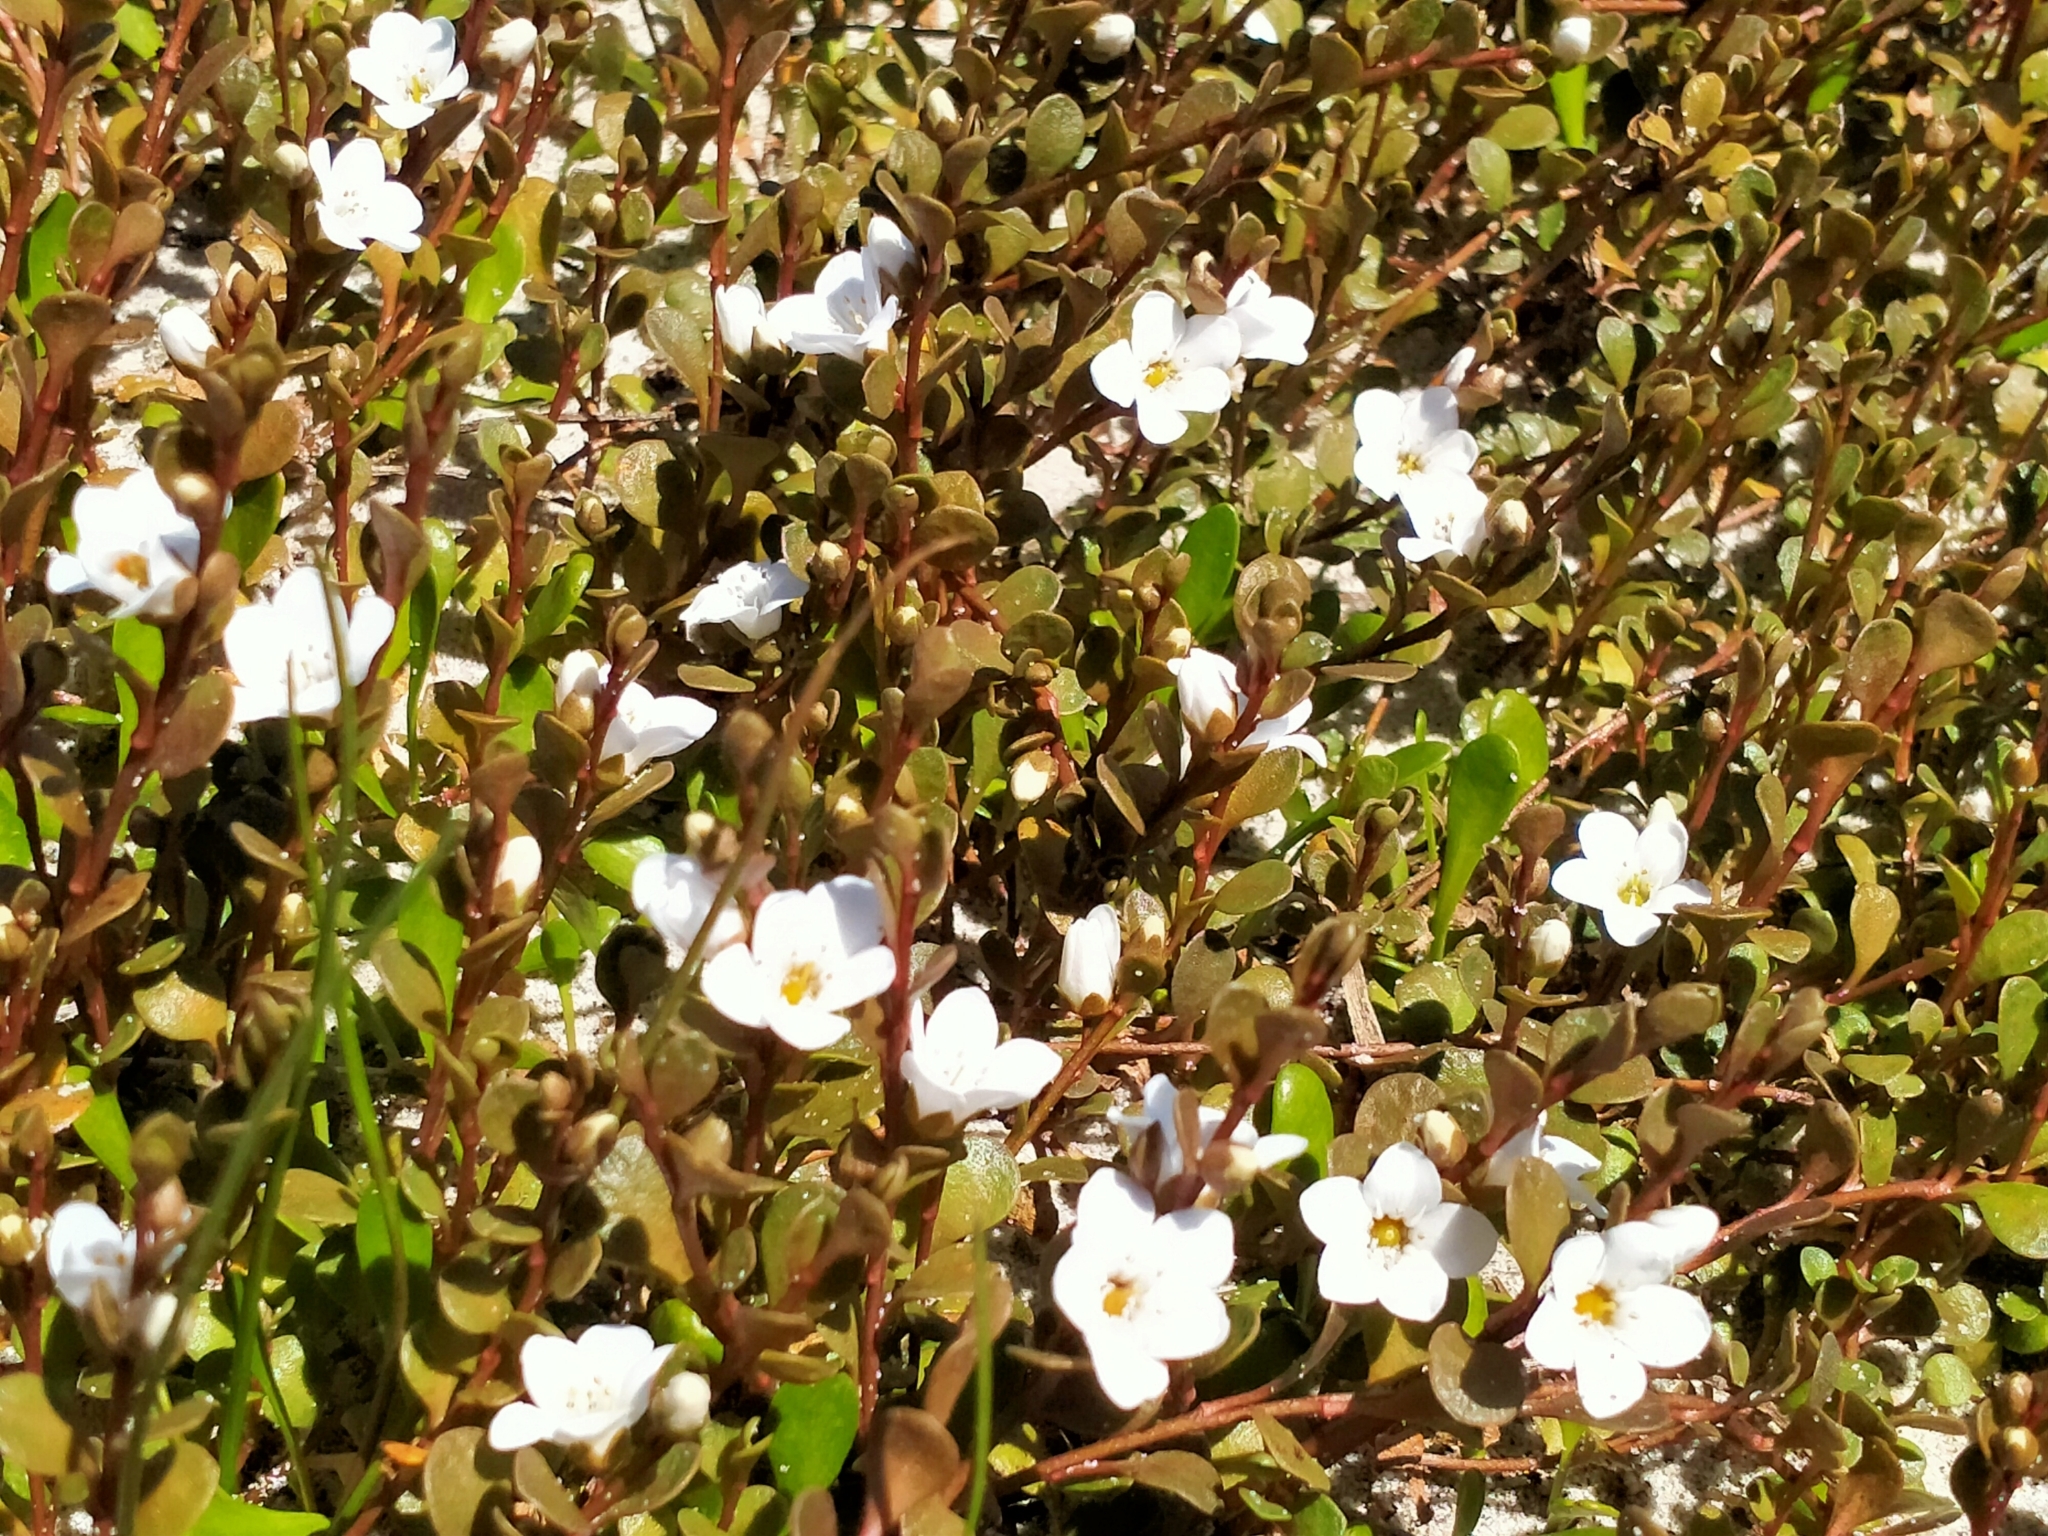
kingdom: Plantae
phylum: Tracheophyta
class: Magnoliopsida
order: Ericales
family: Primulaceae
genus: Samolus
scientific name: Samolus repens
